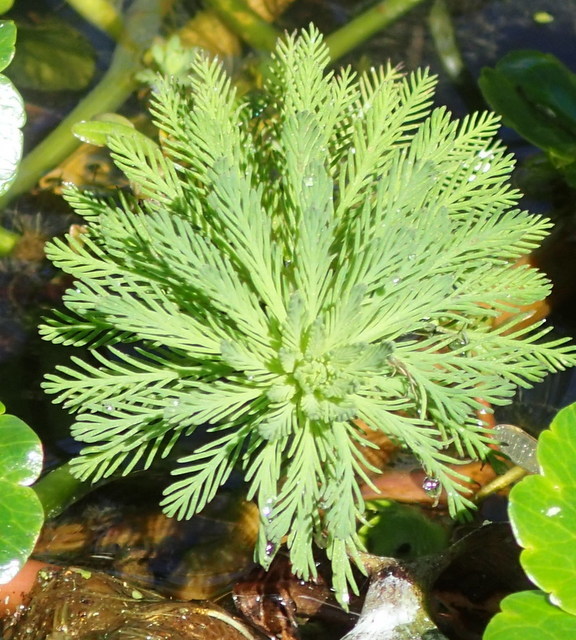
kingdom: Plantae
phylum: Tracheophyta
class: Magnoliopsida
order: Saxifragales
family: Haloragaceae
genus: Myriophyllum
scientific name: Myriophyllum aquaticum
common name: Parrot's feather
